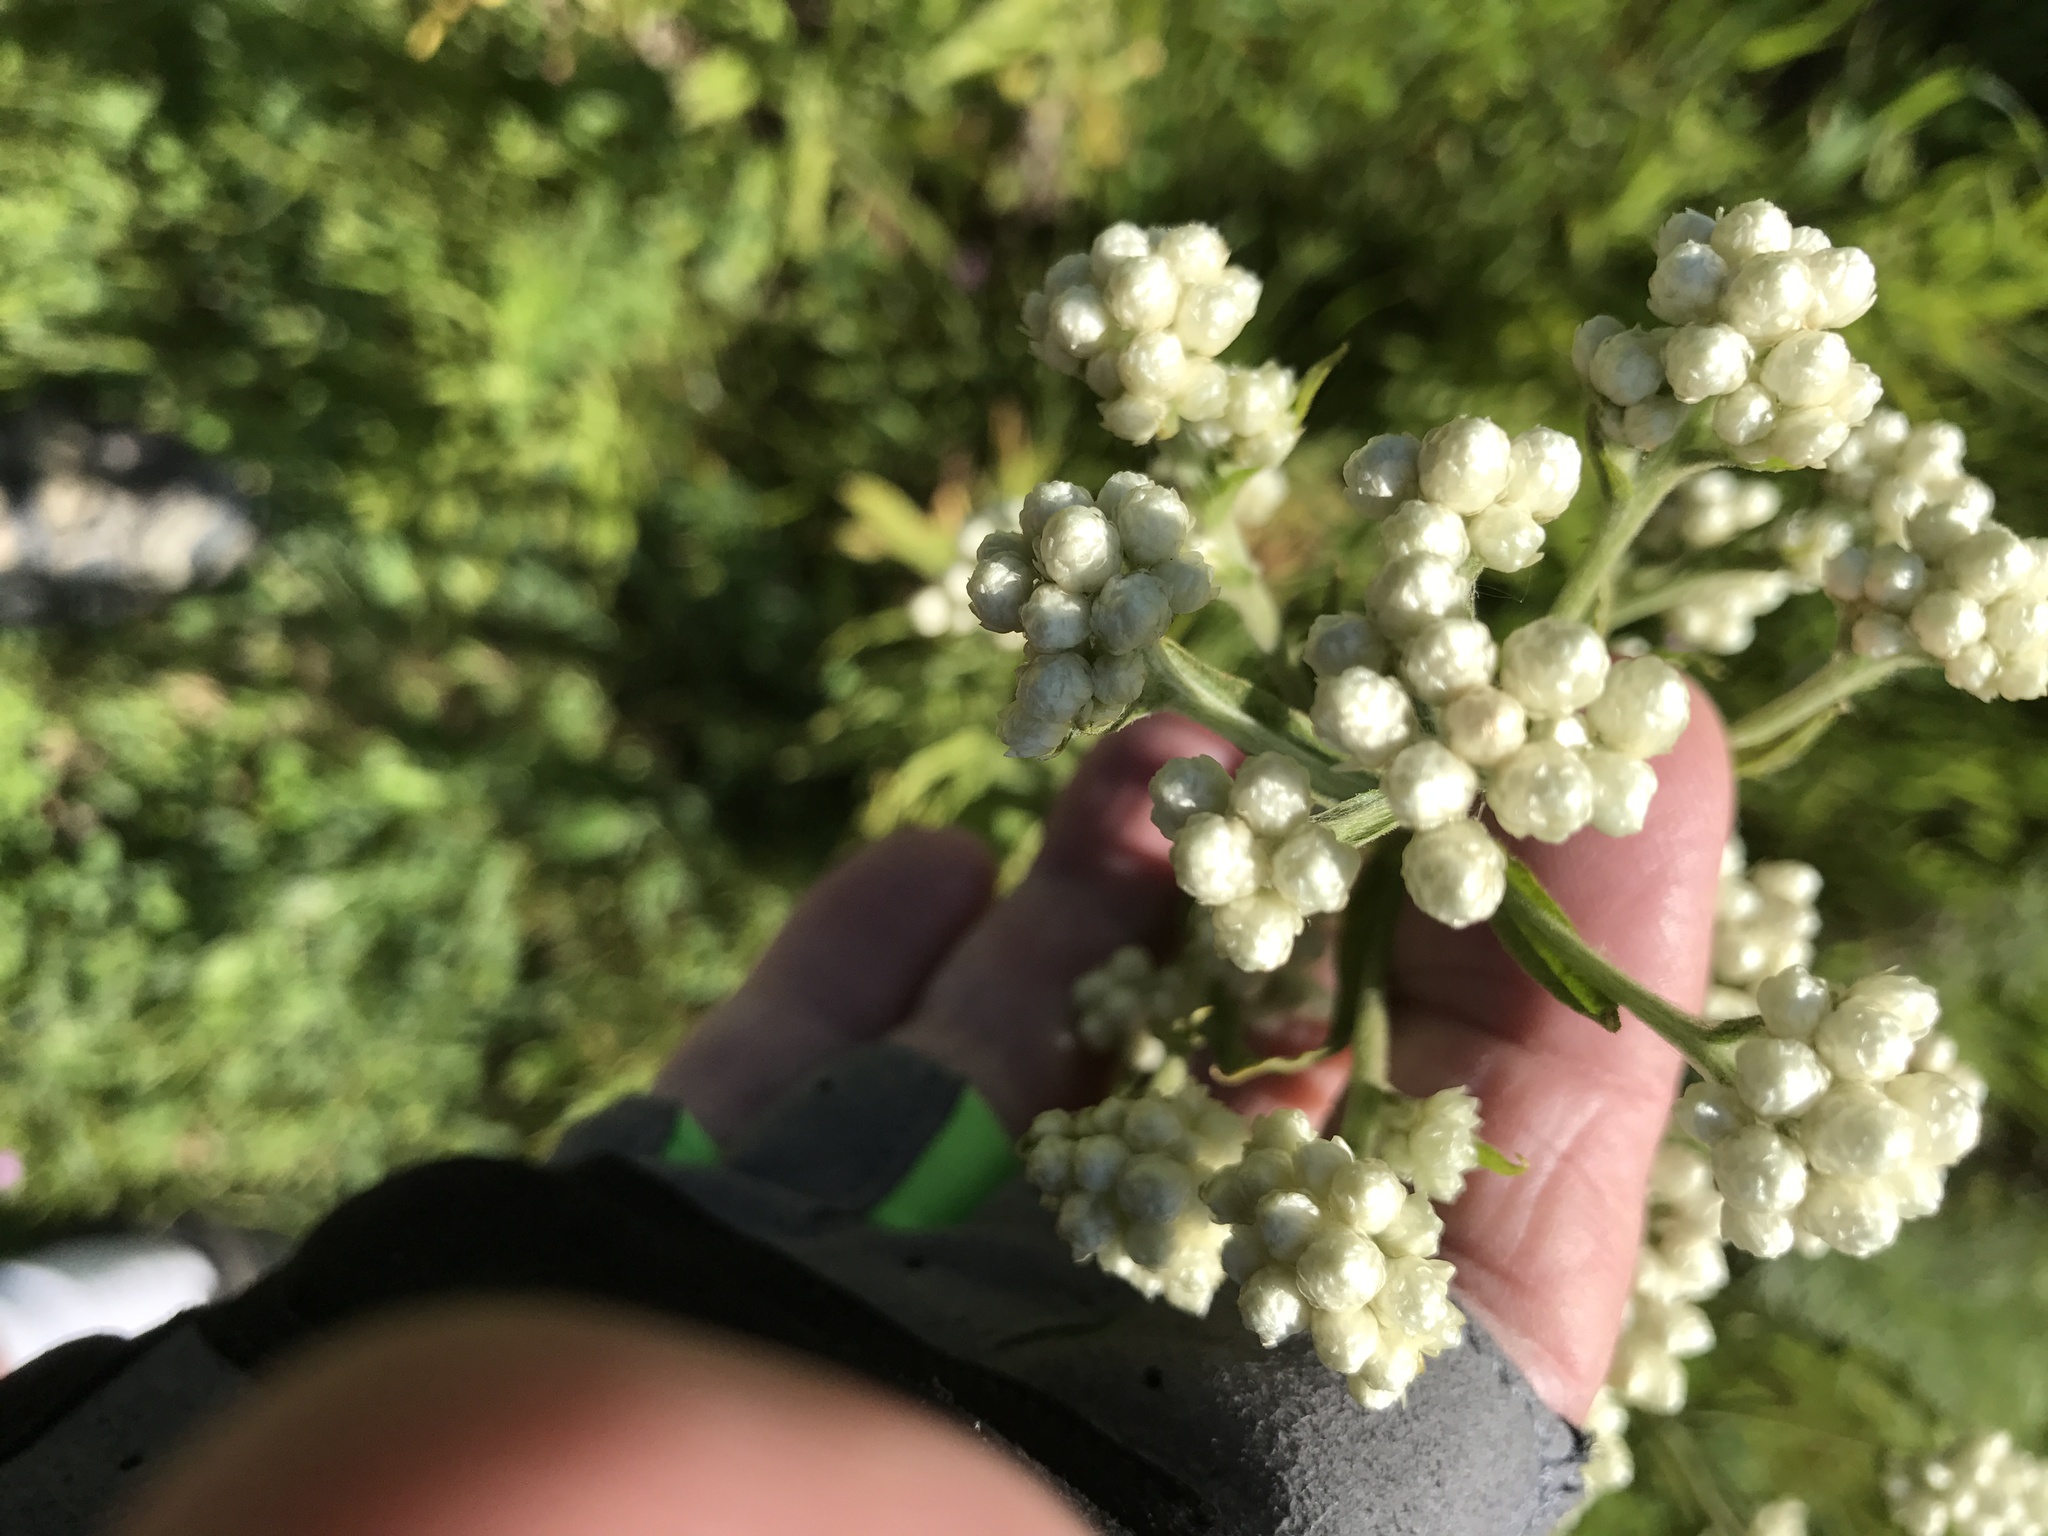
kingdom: Plantae
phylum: Tracheophyta
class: Magnoliopsida
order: Asterales
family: Asteraceae
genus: Achillea
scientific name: Achillea millefolium
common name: Yarrow
